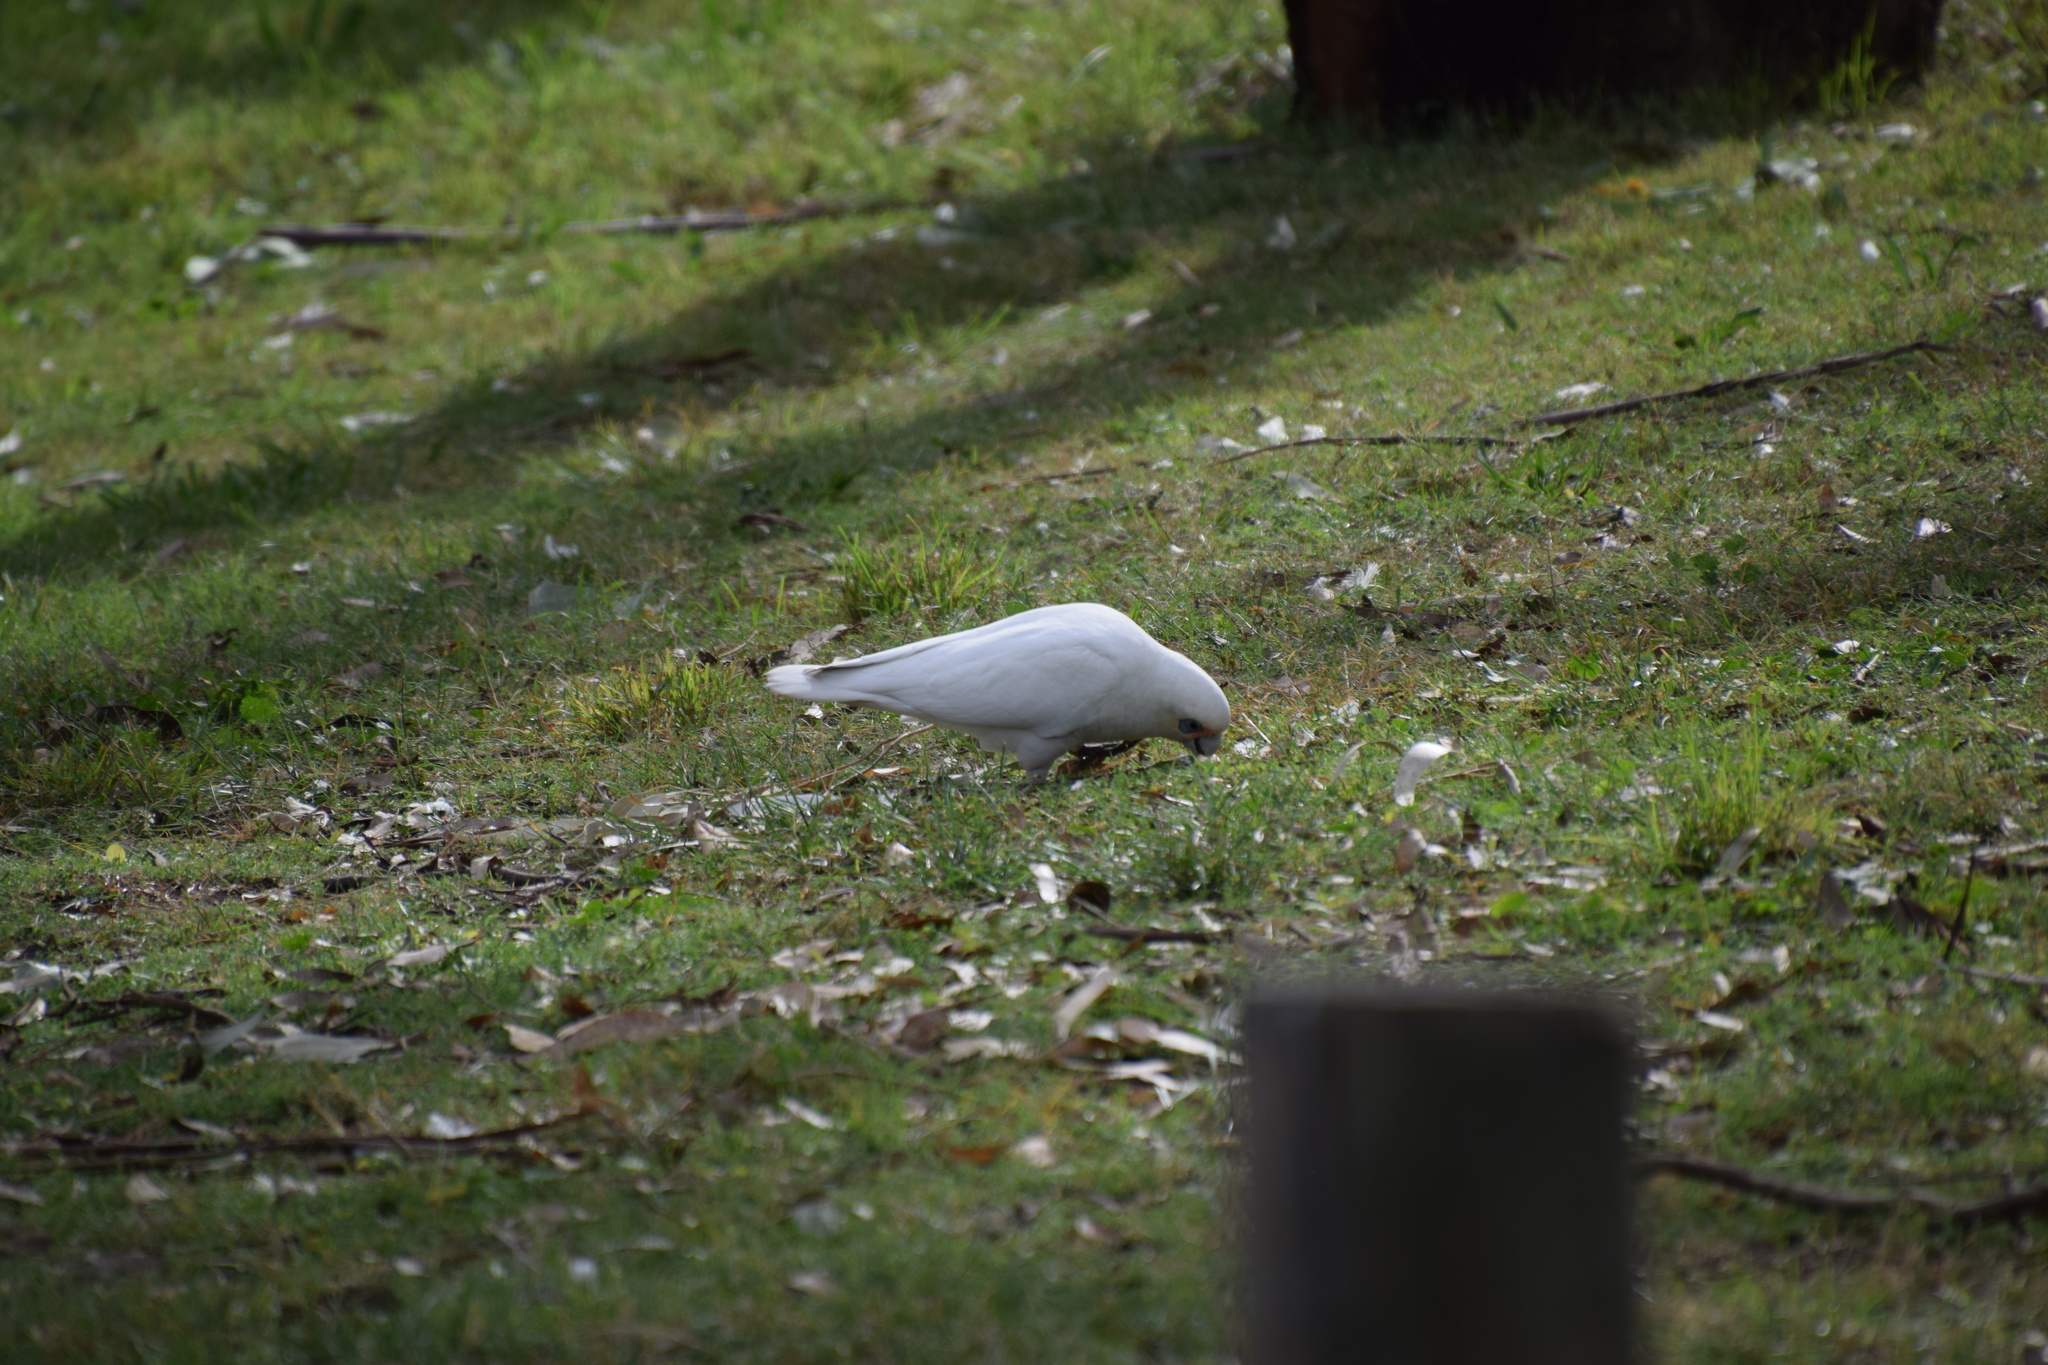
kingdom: Animalia
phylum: Chordata
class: Aves
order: Psittaciformes
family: Psittacidae
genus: Cacatua
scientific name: Cacatua sanguinea
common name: Little corella
